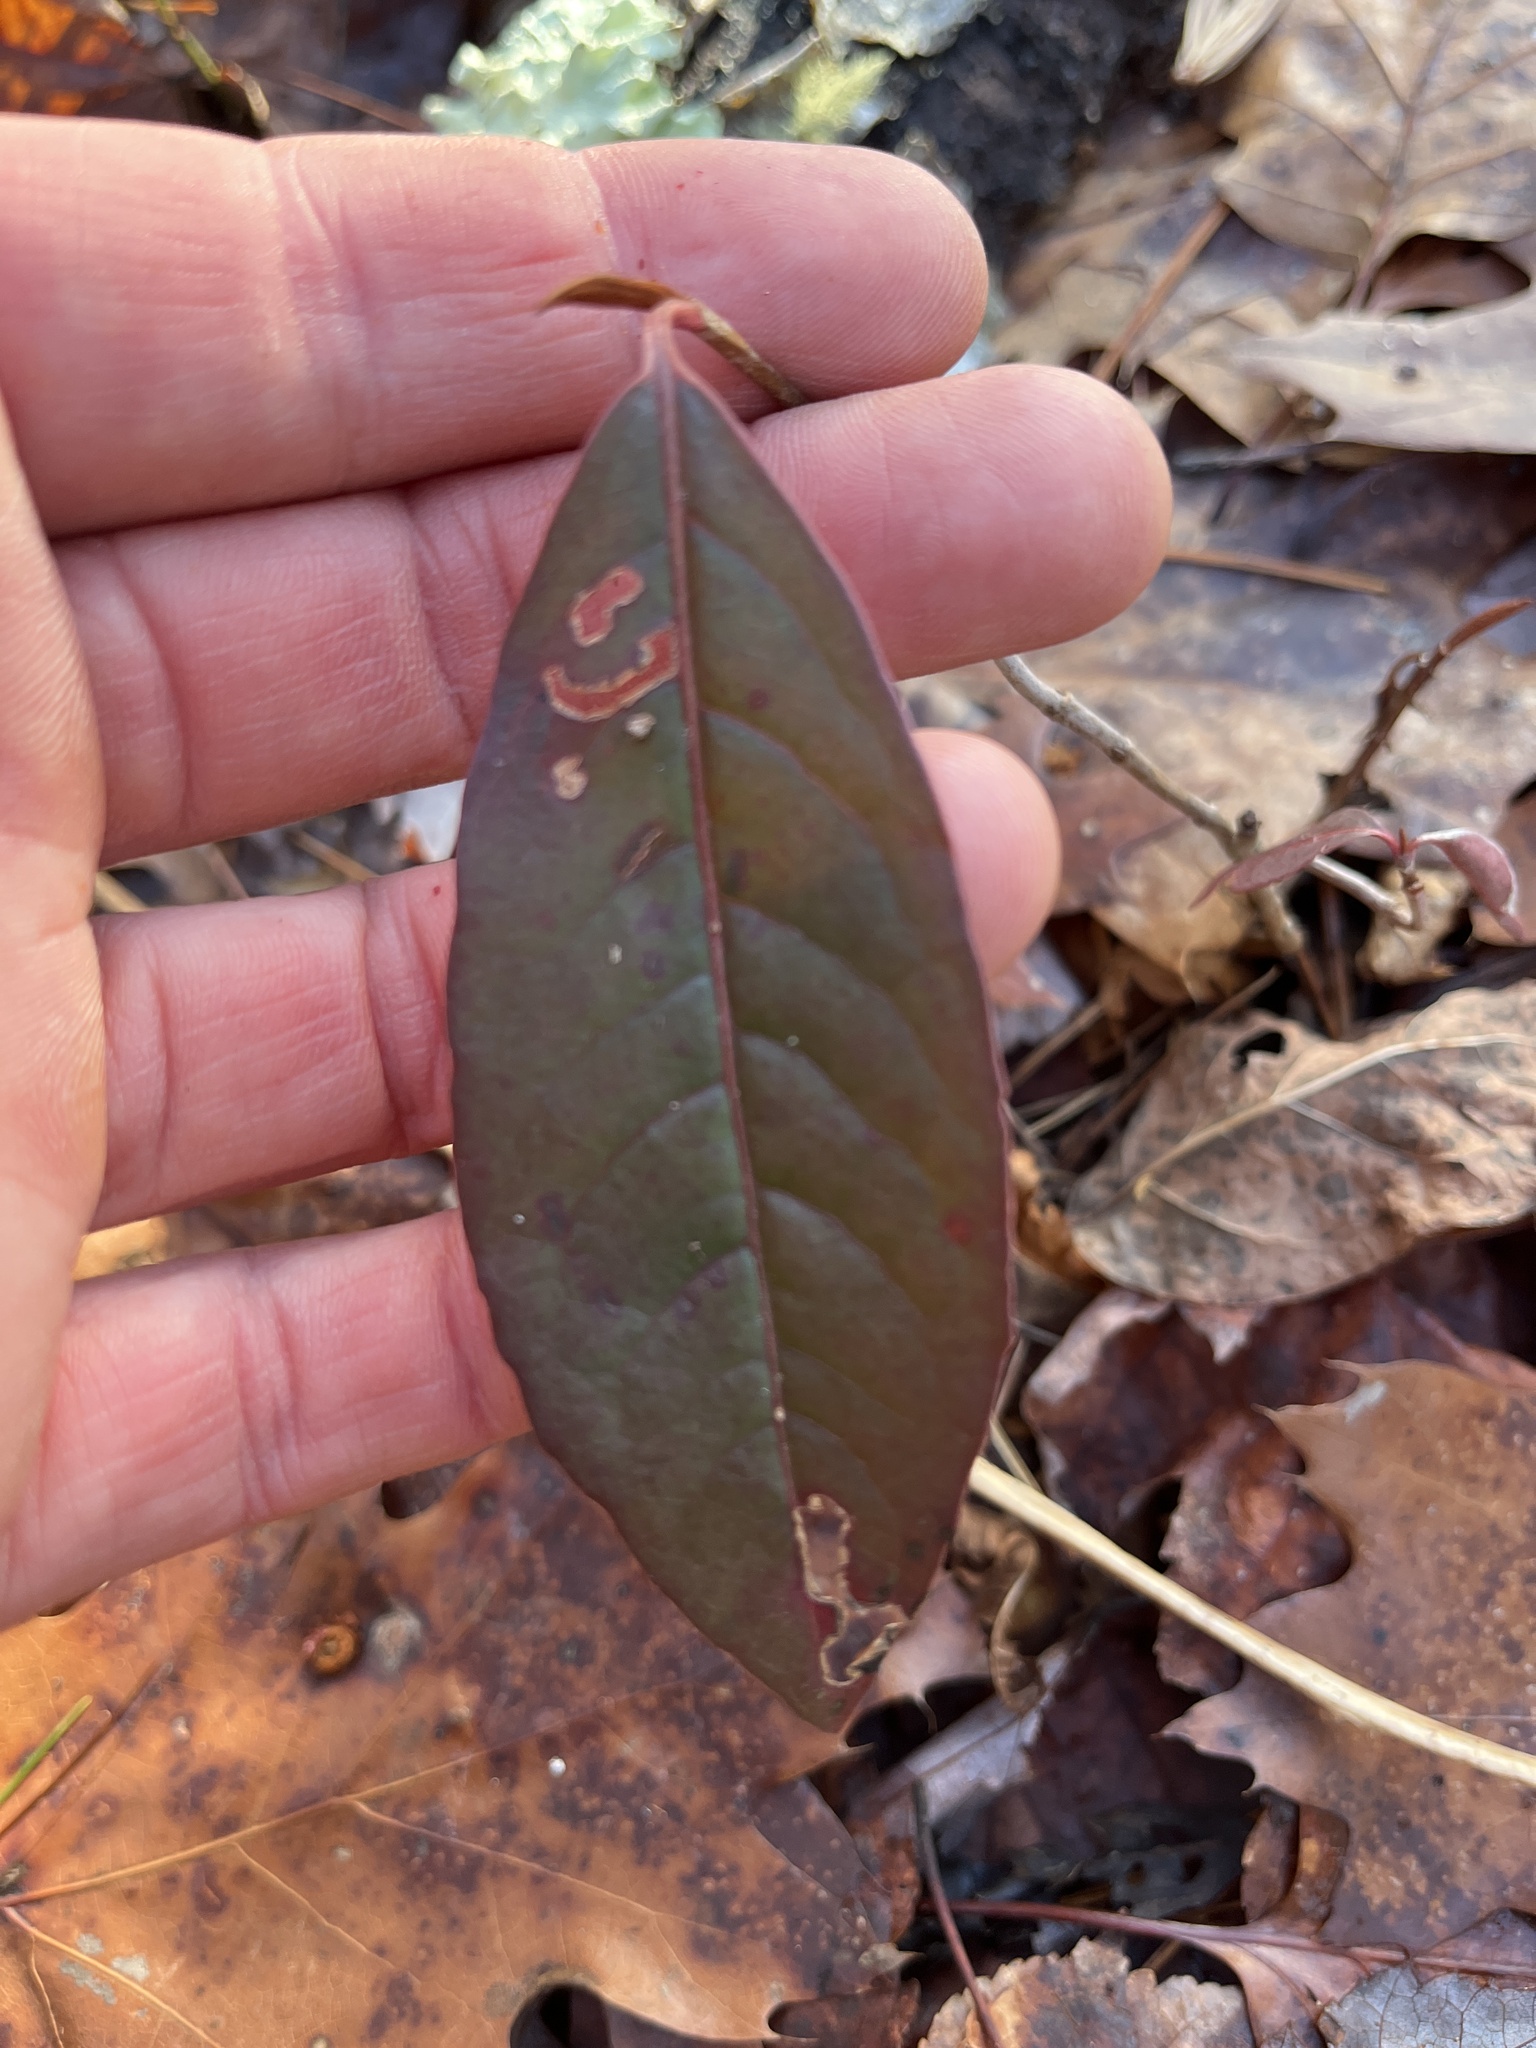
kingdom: Plantae
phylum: Tracheophyta
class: Magnoliopsida
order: Dipsacales
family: Viburnaceae
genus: Viburnum
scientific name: Viburnum cassinoides
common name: Swamp haw
